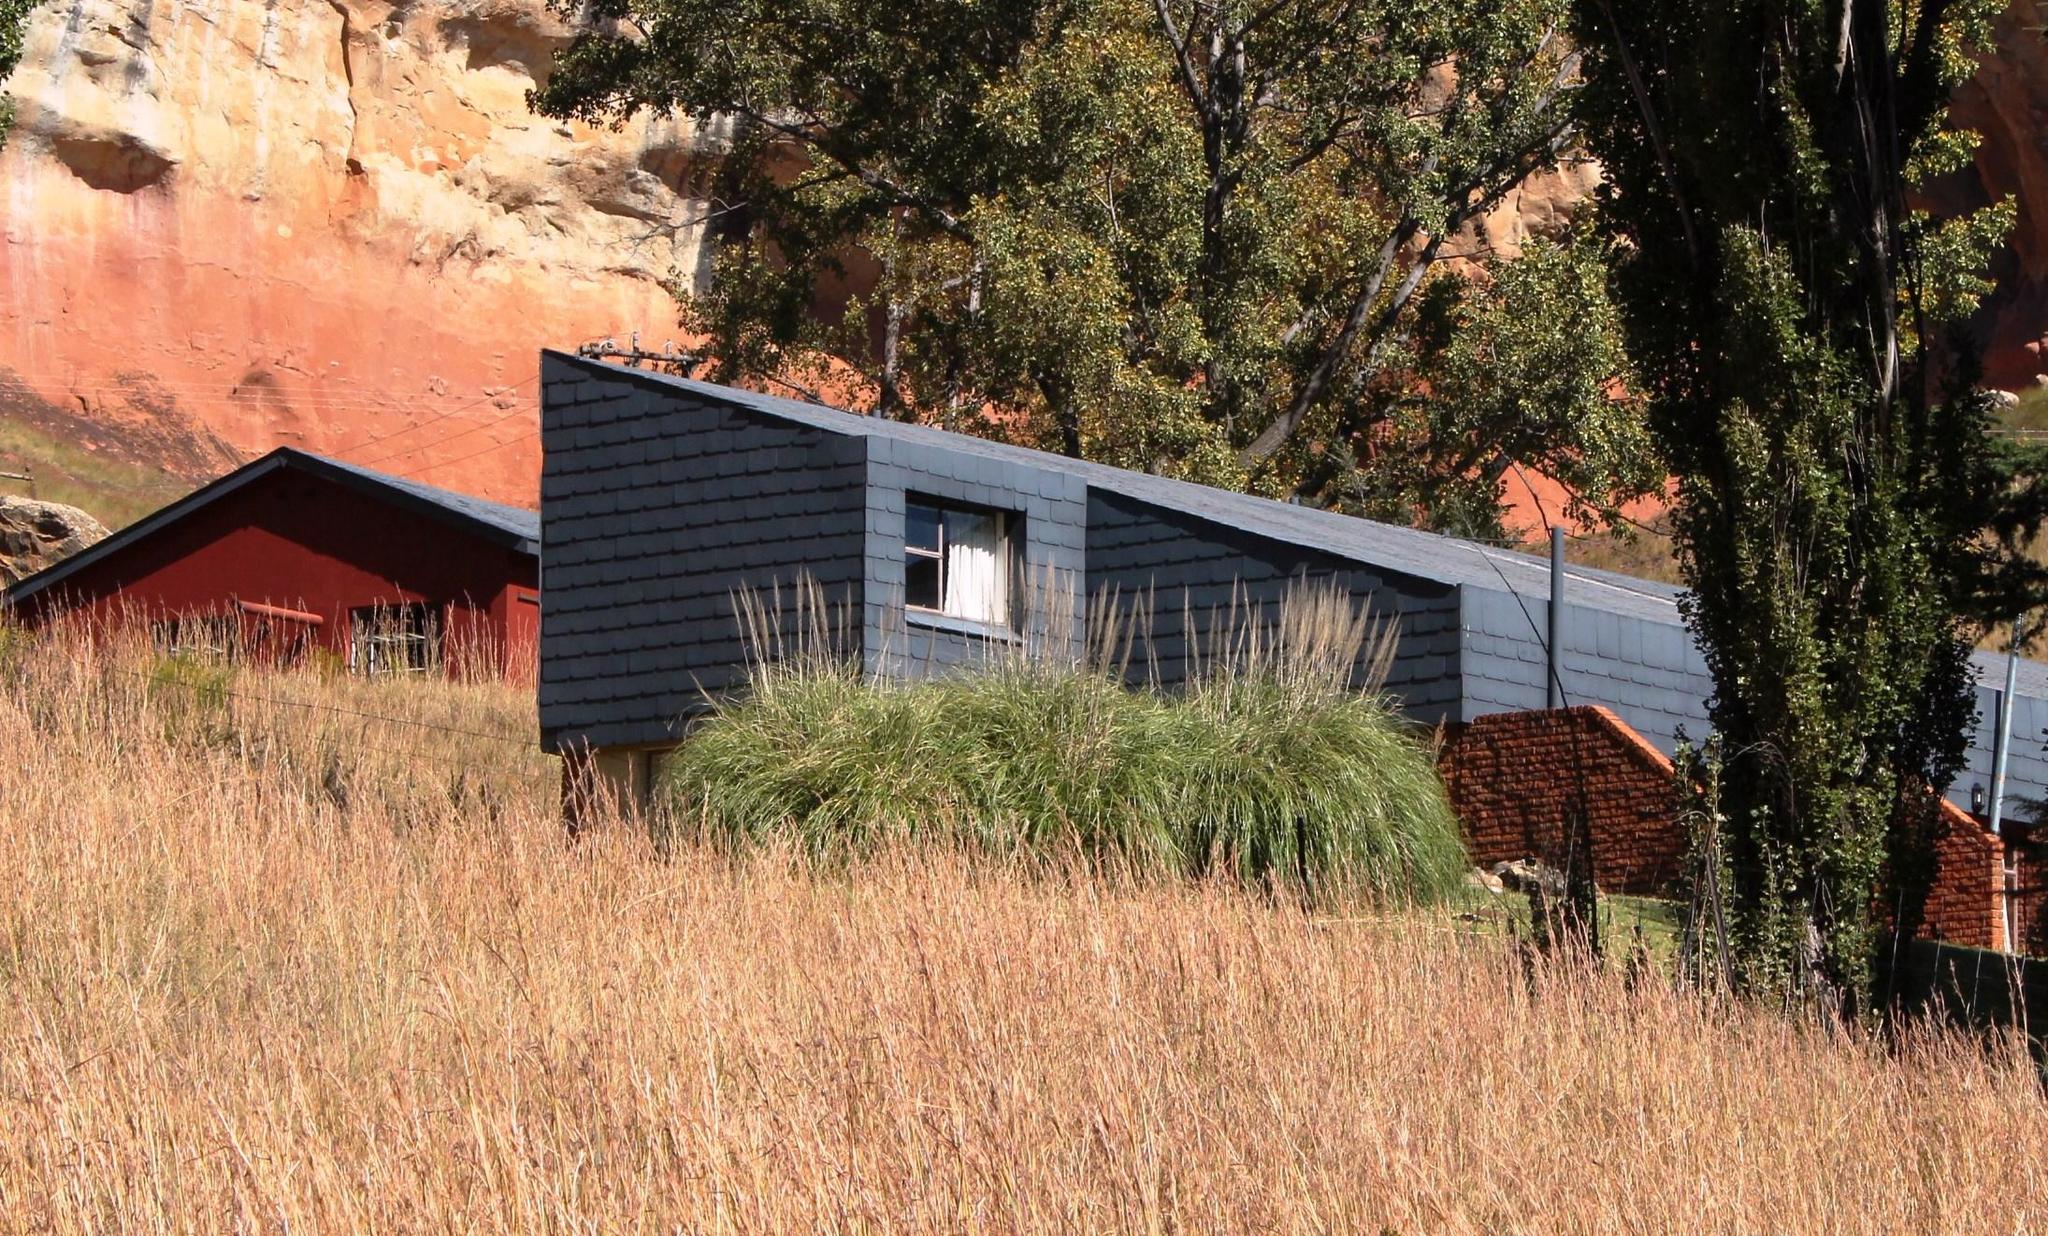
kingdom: Plantae
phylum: Tracheophyta
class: Liliopsida
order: Poales
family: Poaceae
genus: Cortaderia
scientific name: Cortaderia selloana
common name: Uruguayan pampas grass
